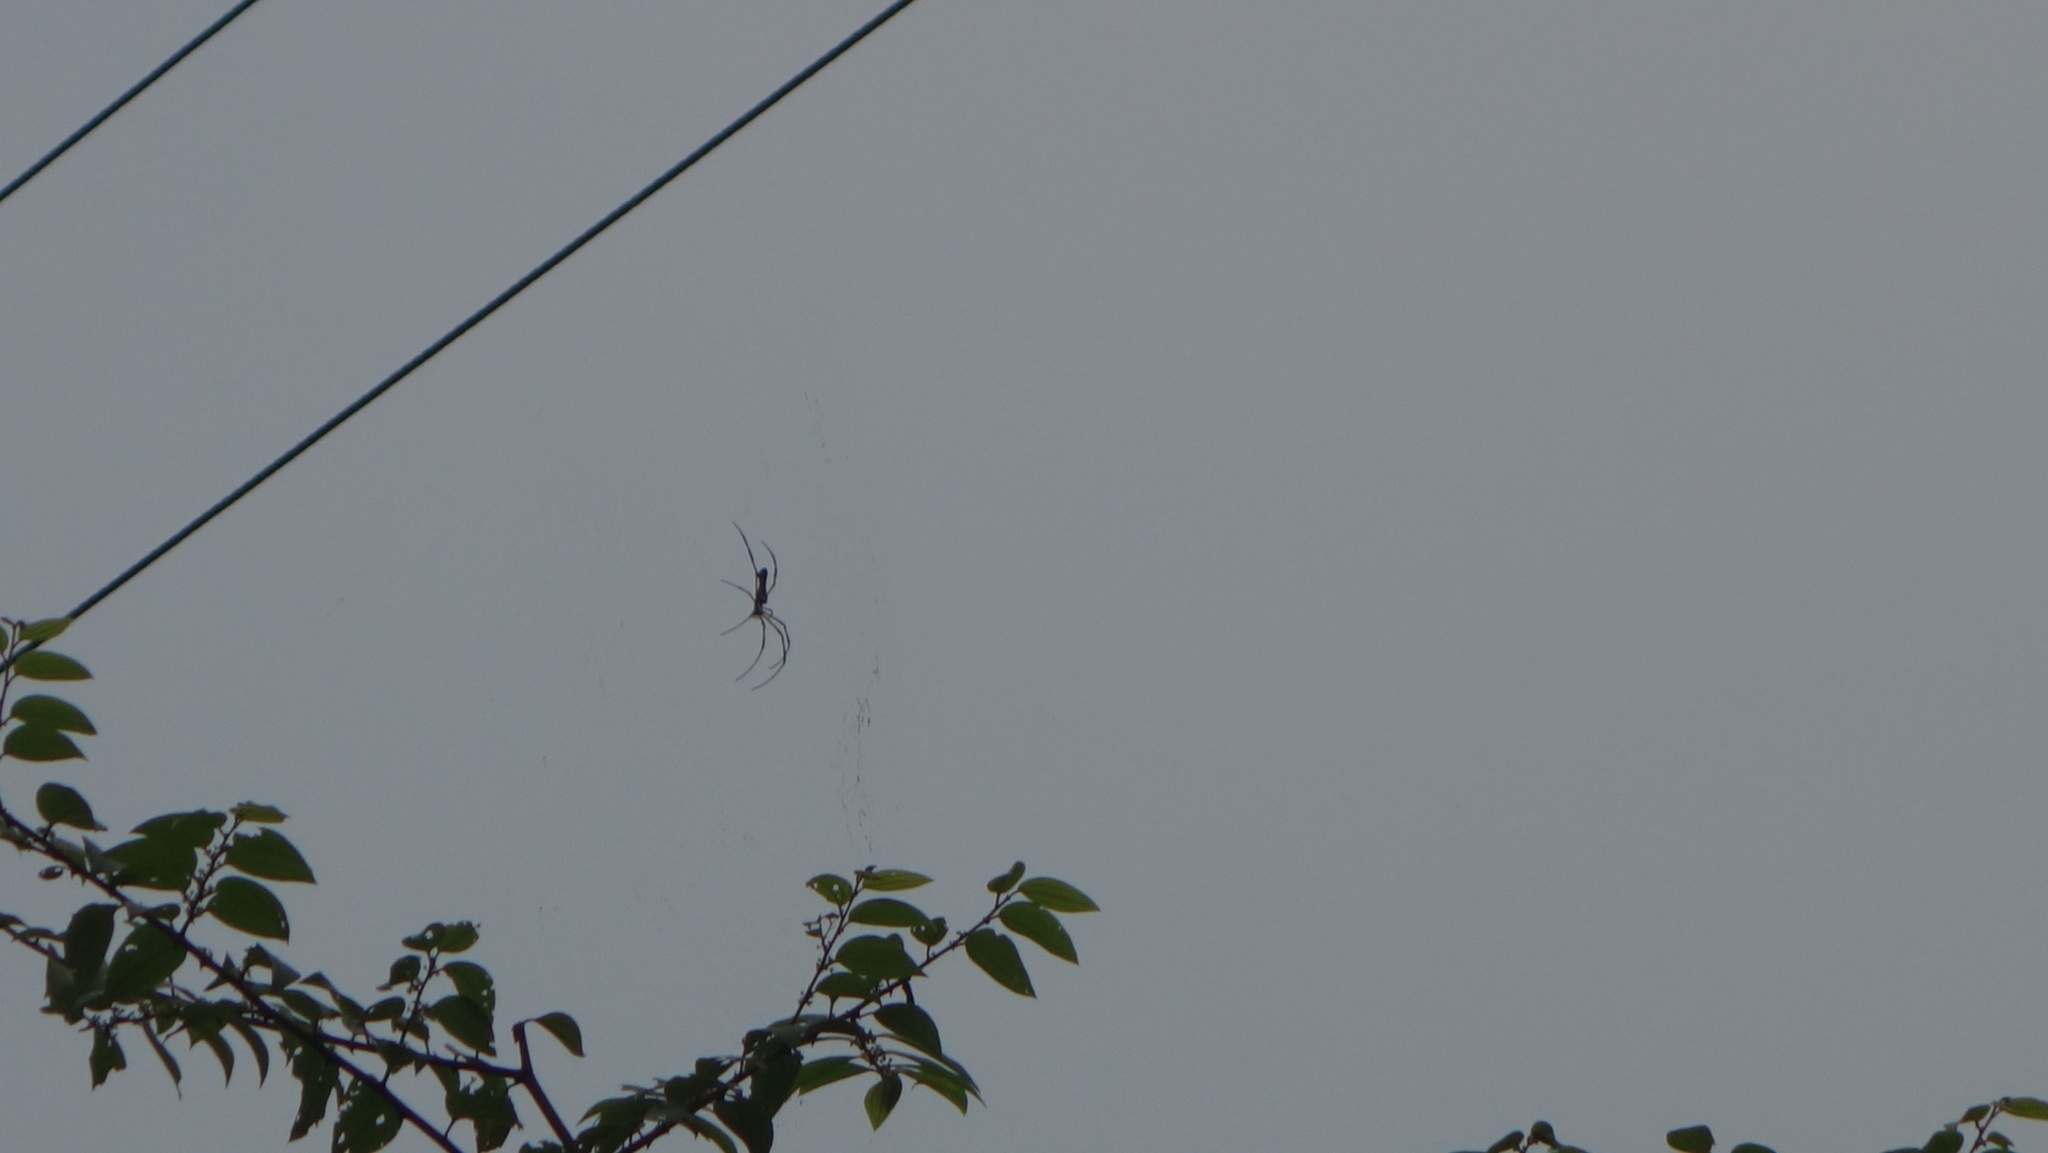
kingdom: Animalia
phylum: Arthropoda
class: Arachnida
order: Araneae
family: Araneidae
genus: Nephila
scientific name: Nephila pilipes
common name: Giant golden orb weaver
